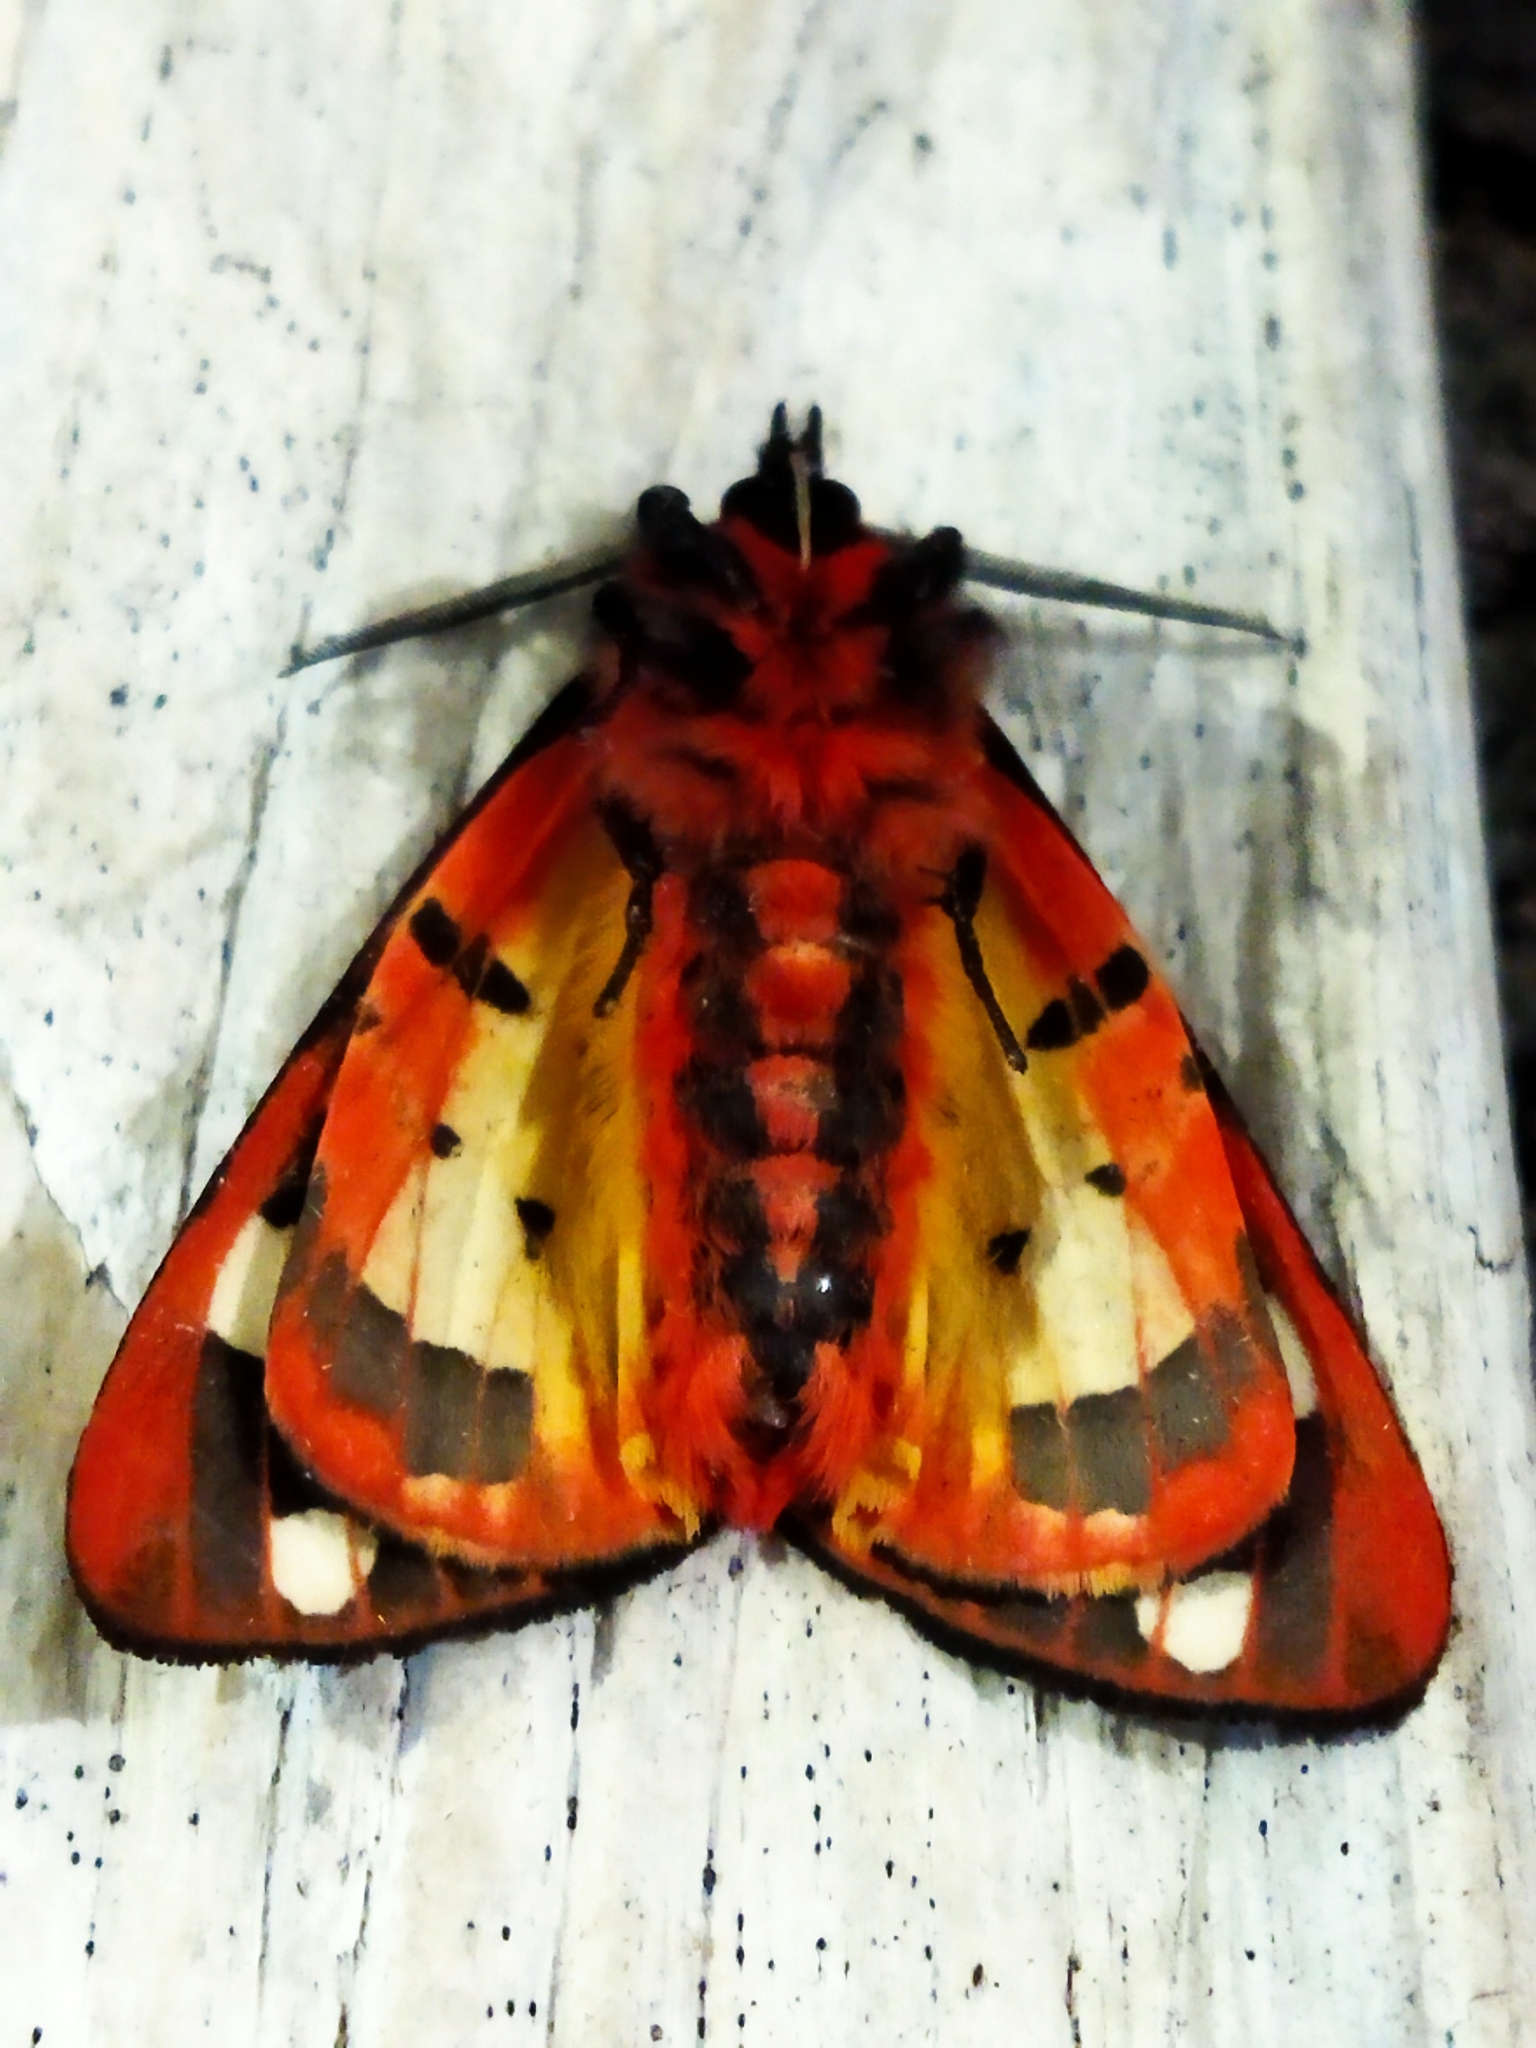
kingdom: Animalia
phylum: Arthropoda
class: Insecta
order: Lepidoptera
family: Erebidae
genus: Epicallia
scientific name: Epicallia villica
